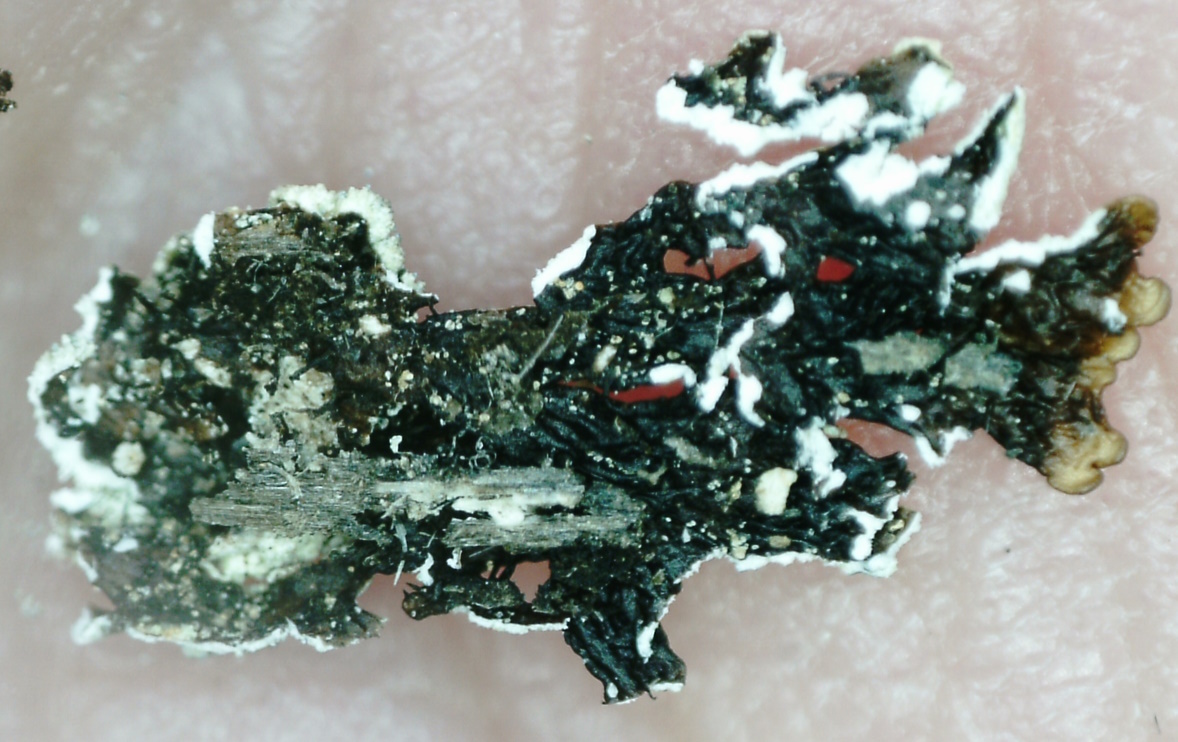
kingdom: Fungi
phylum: Ascomycota
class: Lecanoromycetes
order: Lecanorales
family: Parmeliaceae
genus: Parmeliopsis
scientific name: Parmeliopsis hyperopta
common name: Grey starburst lichen
